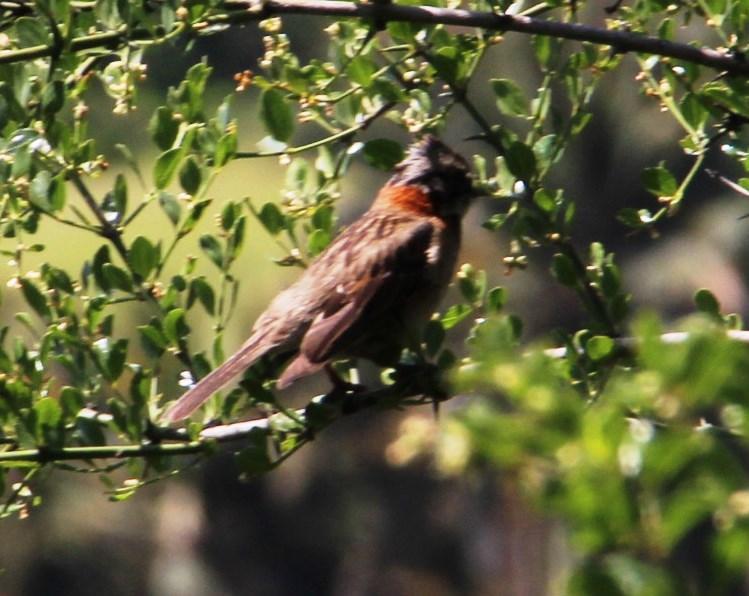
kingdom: Animalia
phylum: Chordata
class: Aves
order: Passeriformes
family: Passerellidae
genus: Zonotrichia
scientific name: Zonotrichia capensis
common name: Rufous-collared sparrow
